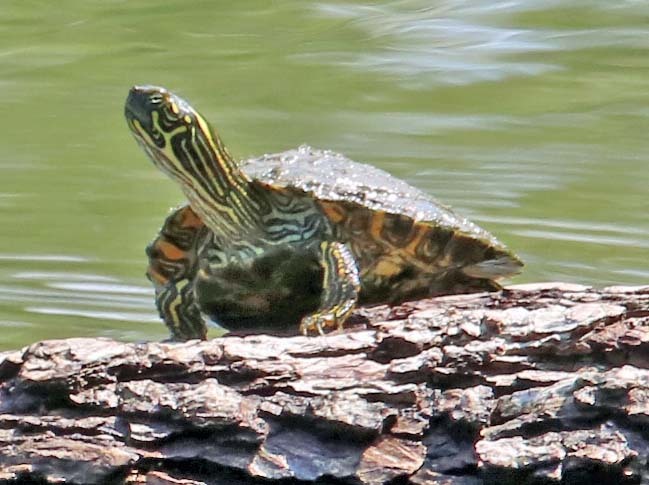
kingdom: Animalia
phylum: Chordata
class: Testudines
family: Emydidae
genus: Pseudemys
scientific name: Pseudemys texana
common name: Texas river cooter
